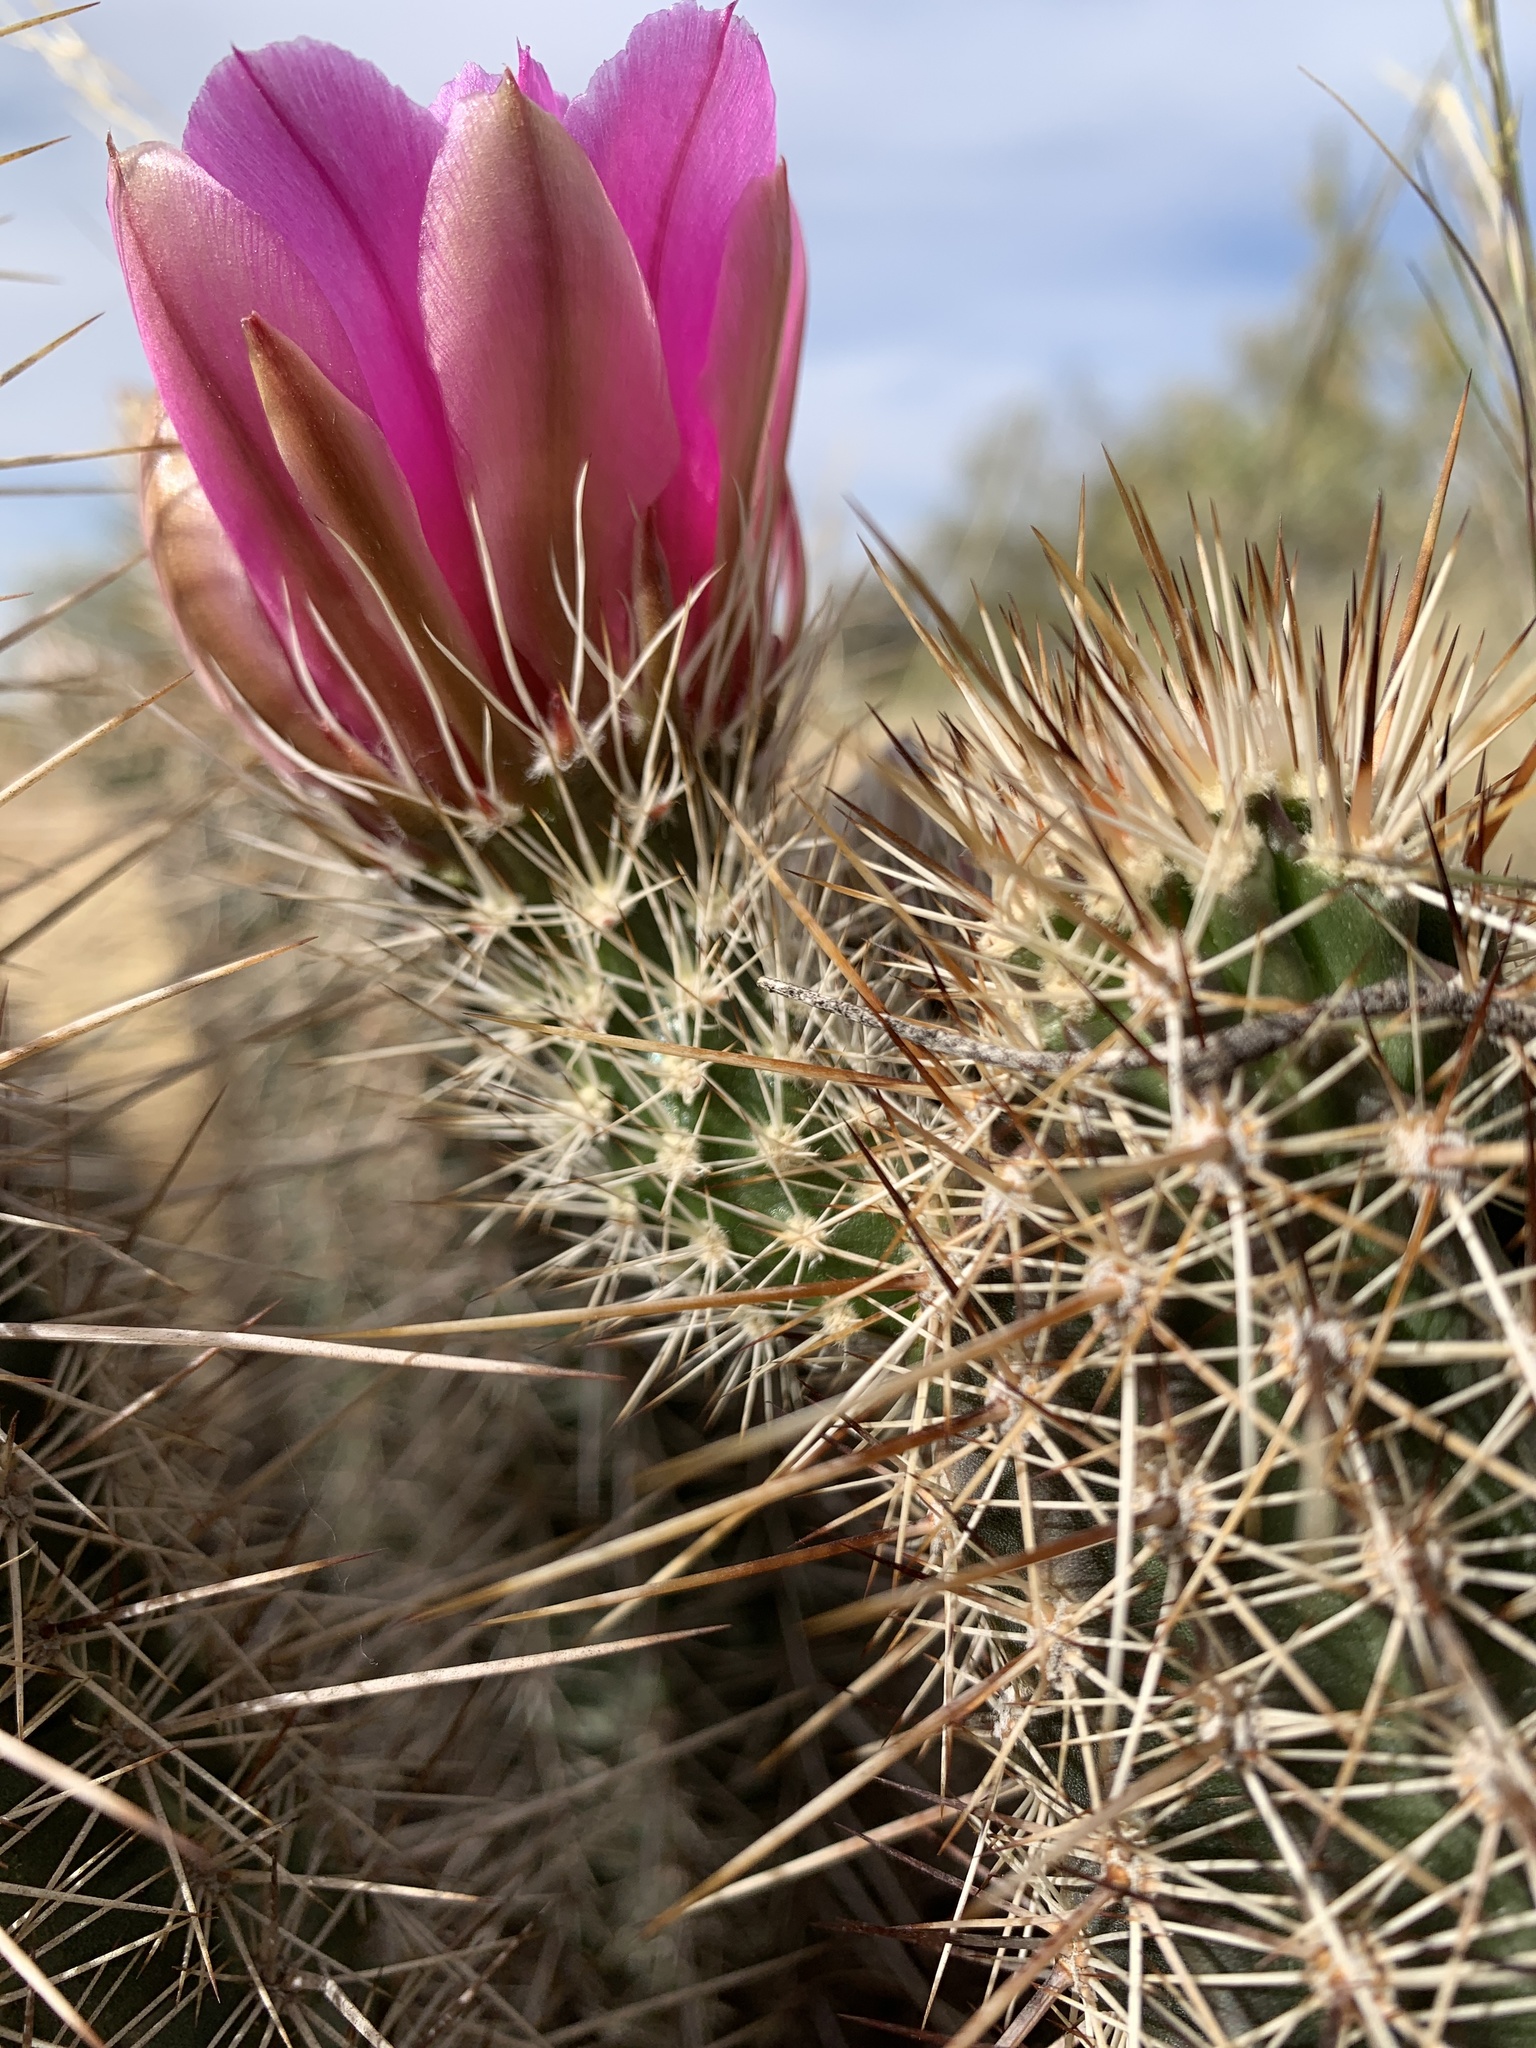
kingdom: Plantae
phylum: Tracheophyta
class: Magnoliopsida
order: Caryophyllales
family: Cactaceae
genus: Echinocereus
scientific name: Echinocereus fasciculatus
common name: Bundle hedgehog
